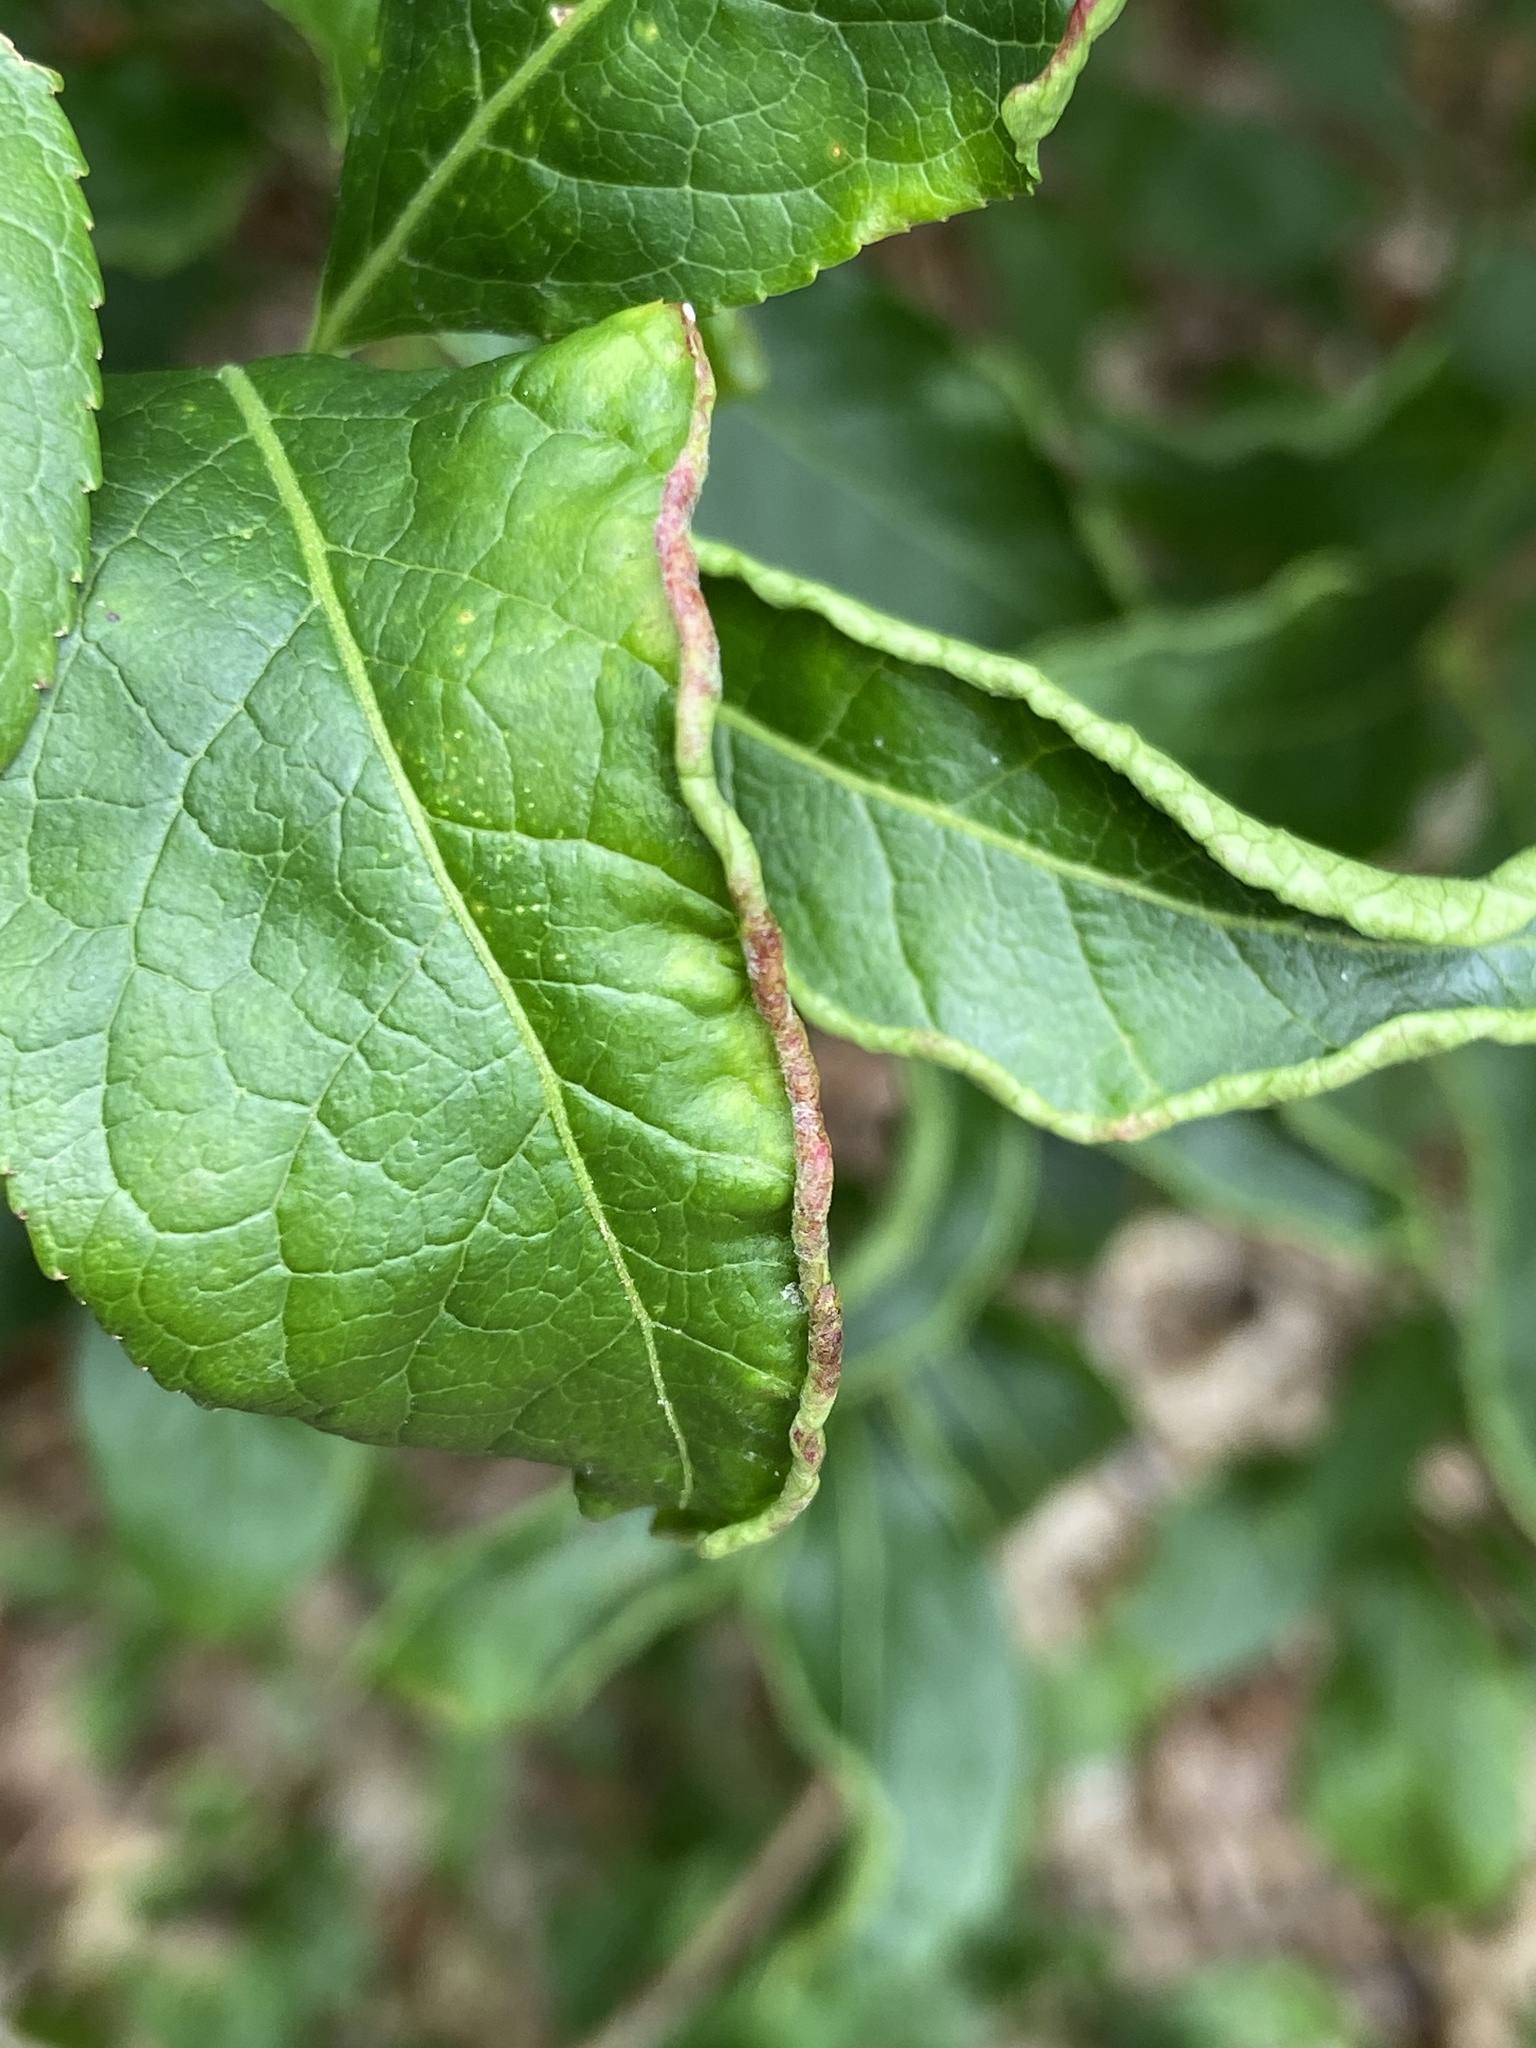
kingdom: Animalia
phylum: Arthropoda
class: Arachnida
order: Trombidiformes
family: Eriophyidae
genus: Stenacis
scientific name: Stenacis evonymi
